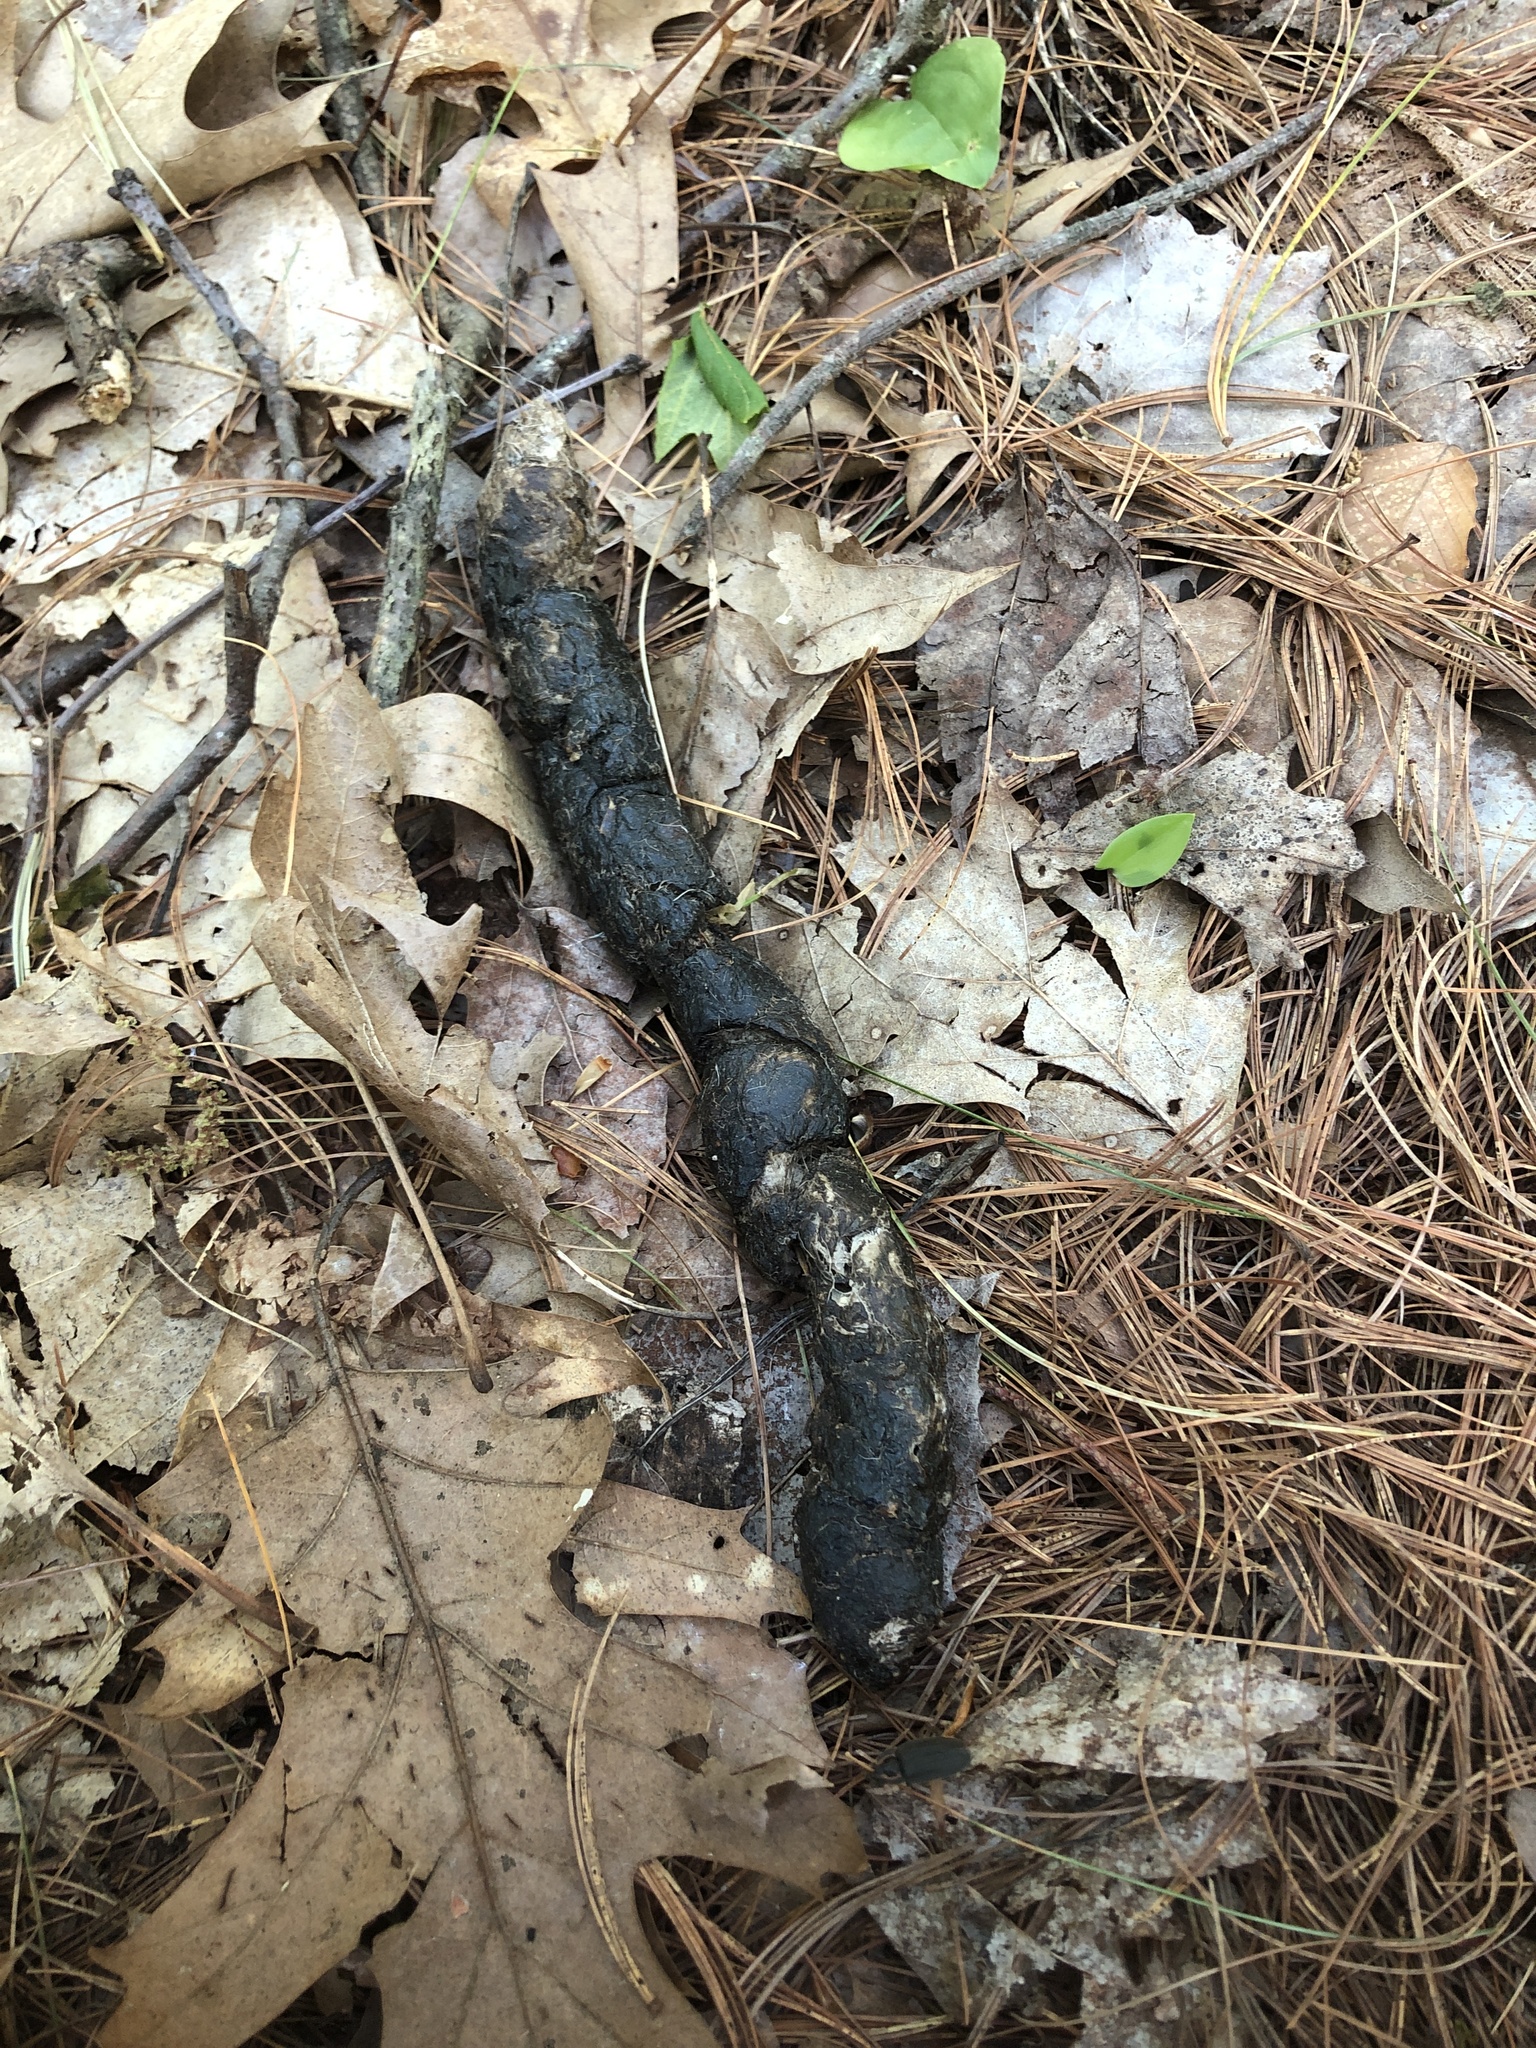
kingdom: Animalia
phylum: Chordata
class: Mammalia
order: Carnivora
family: Canidae
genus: Canis
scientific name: Canis latrans
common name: Coyote
